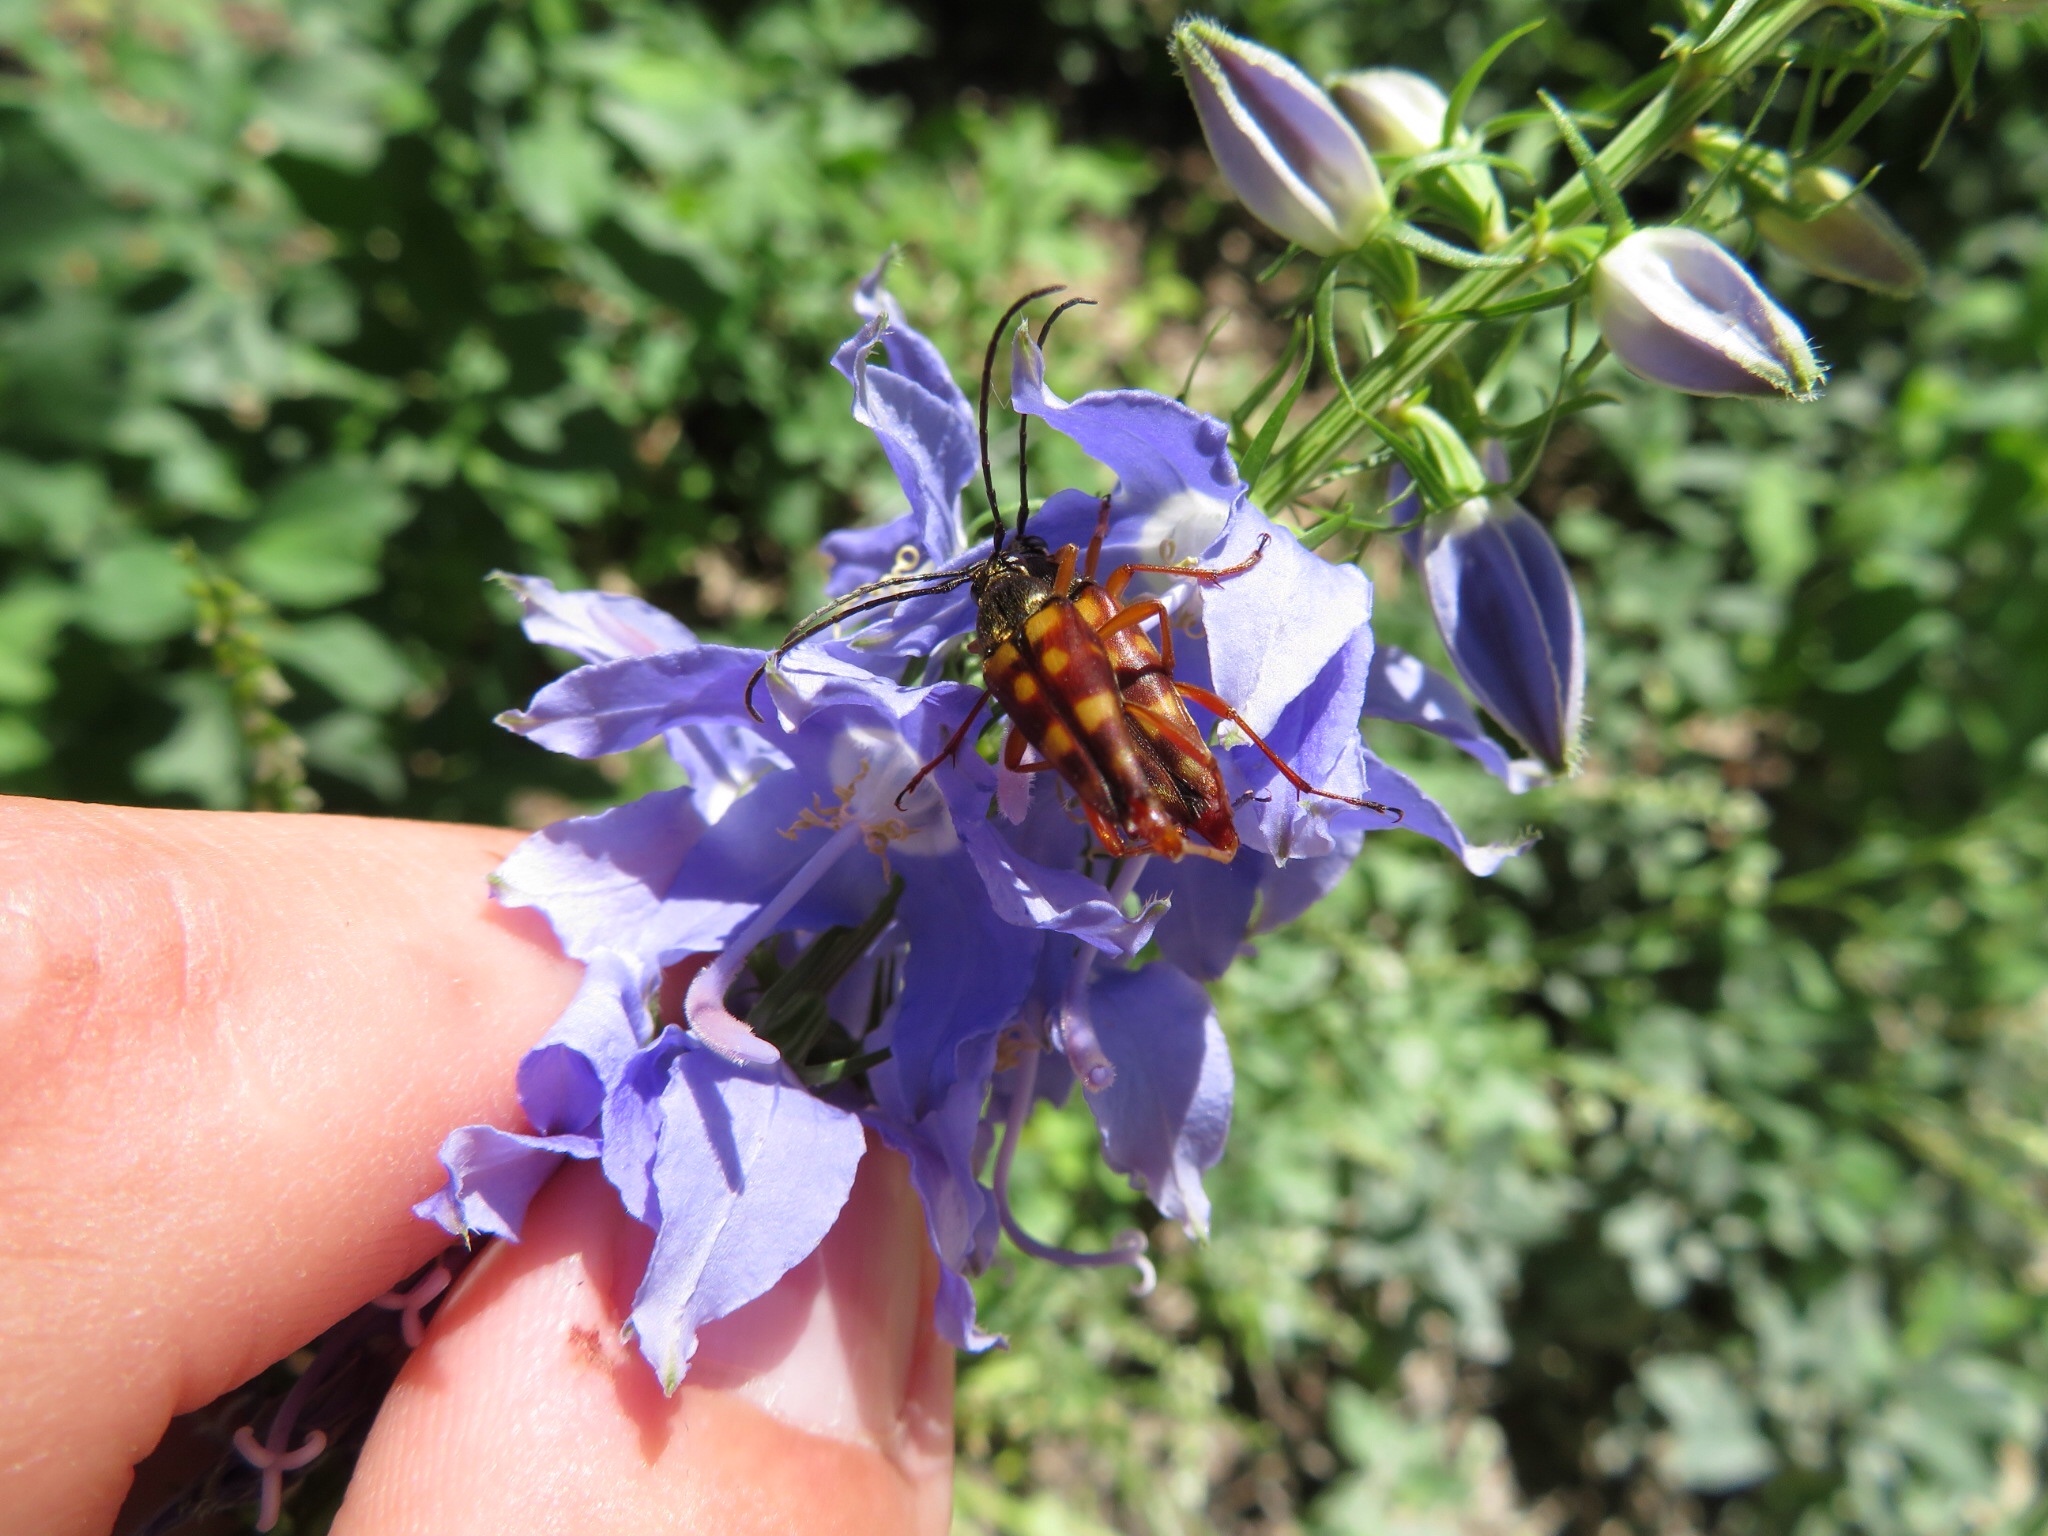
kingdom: Animalia
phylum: Arthropoda
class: Insecta
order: Coleoptera
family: Cerambycidae
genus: Typocerus
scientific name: Typocerus velutinus
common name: Banded longhorn beetle
